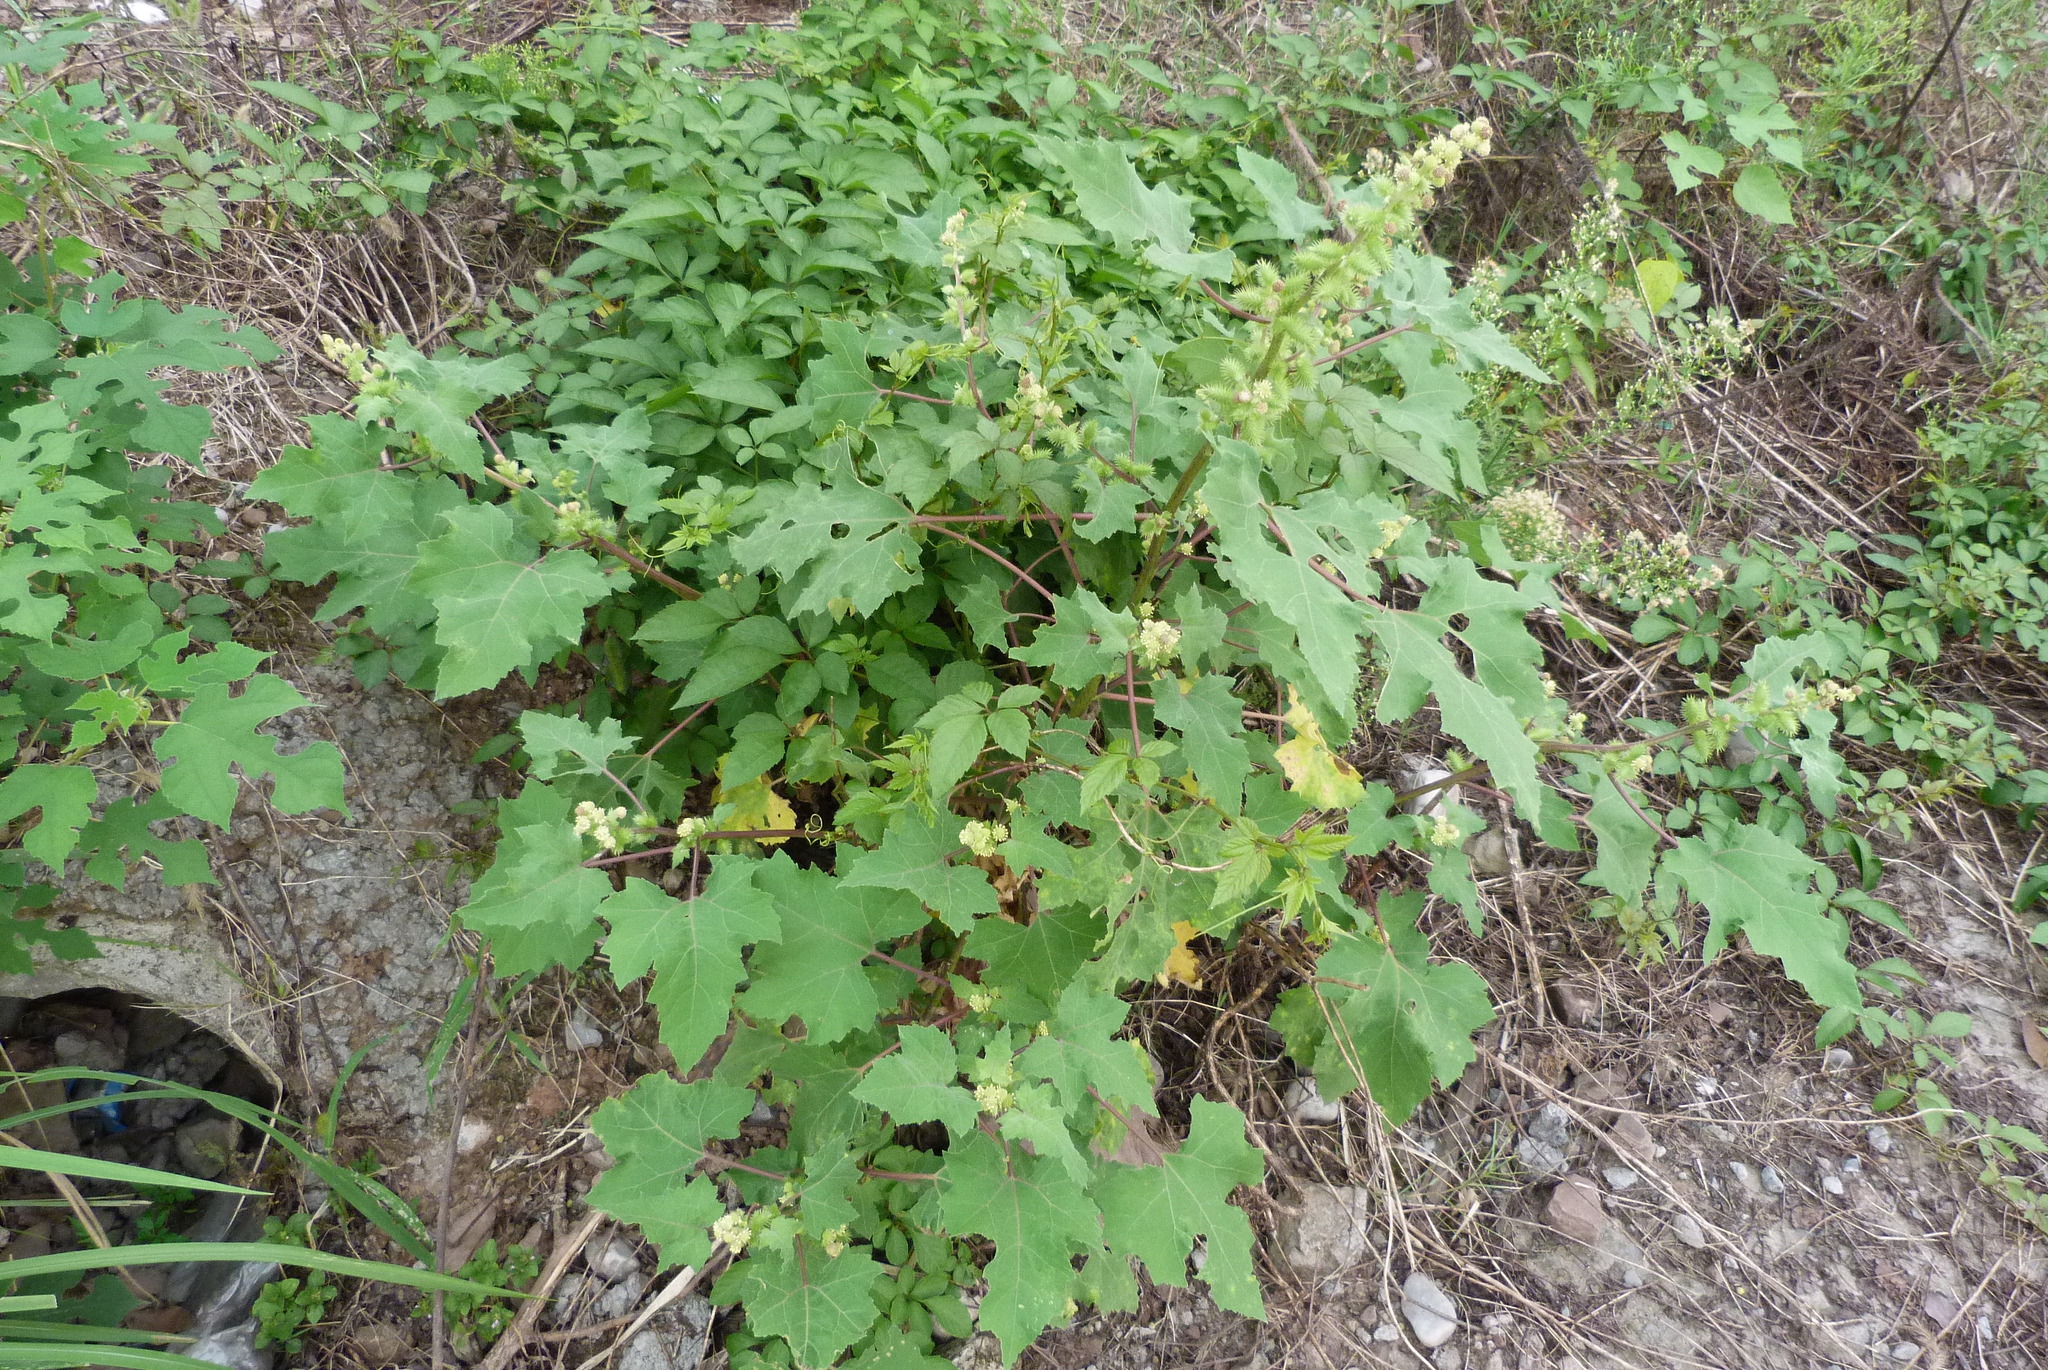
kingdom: Plantae
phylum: Tracheophyta
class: Magnoliopsida
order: Asterales
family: Asteraceae
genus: Xanthium
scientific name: Xanthium strumarium
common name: Rough cocklebur
